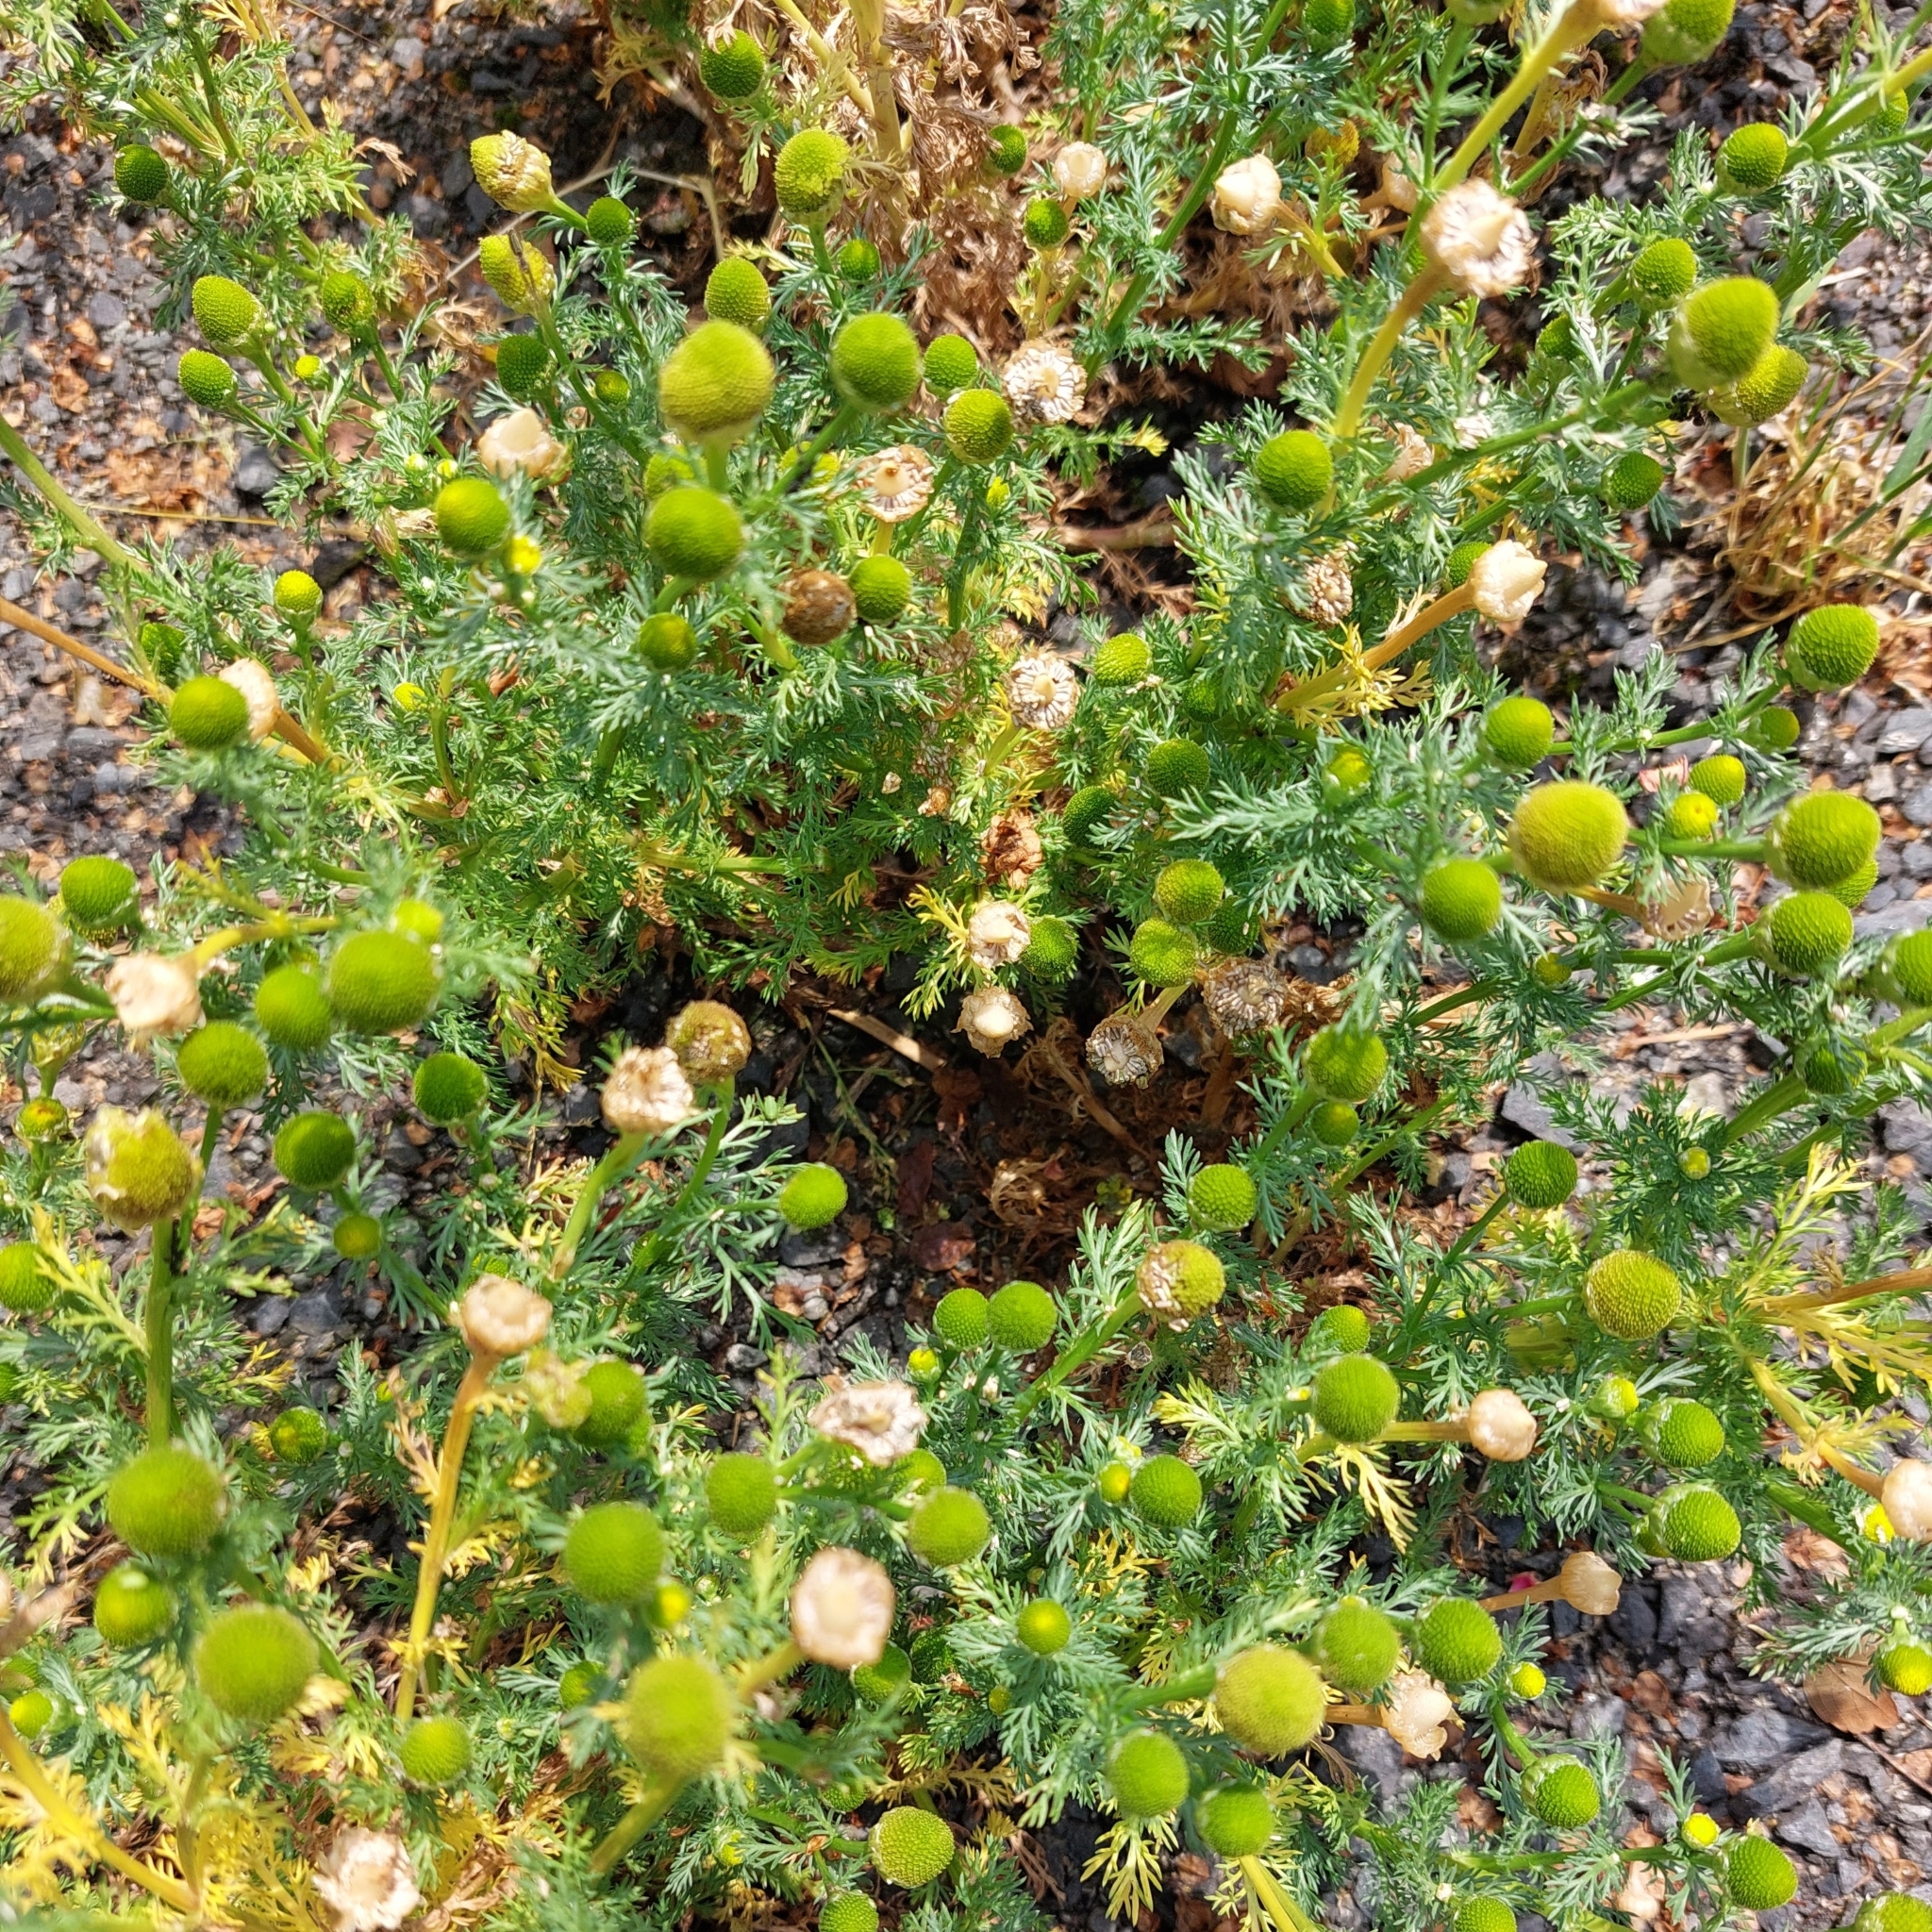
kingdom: Plantae
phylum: Tracheophyta
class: Magnoliopsida
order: Asterales
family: Asteraceae
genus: Matricaria
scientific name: Matricaria discoidea
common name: Disc mayweed
